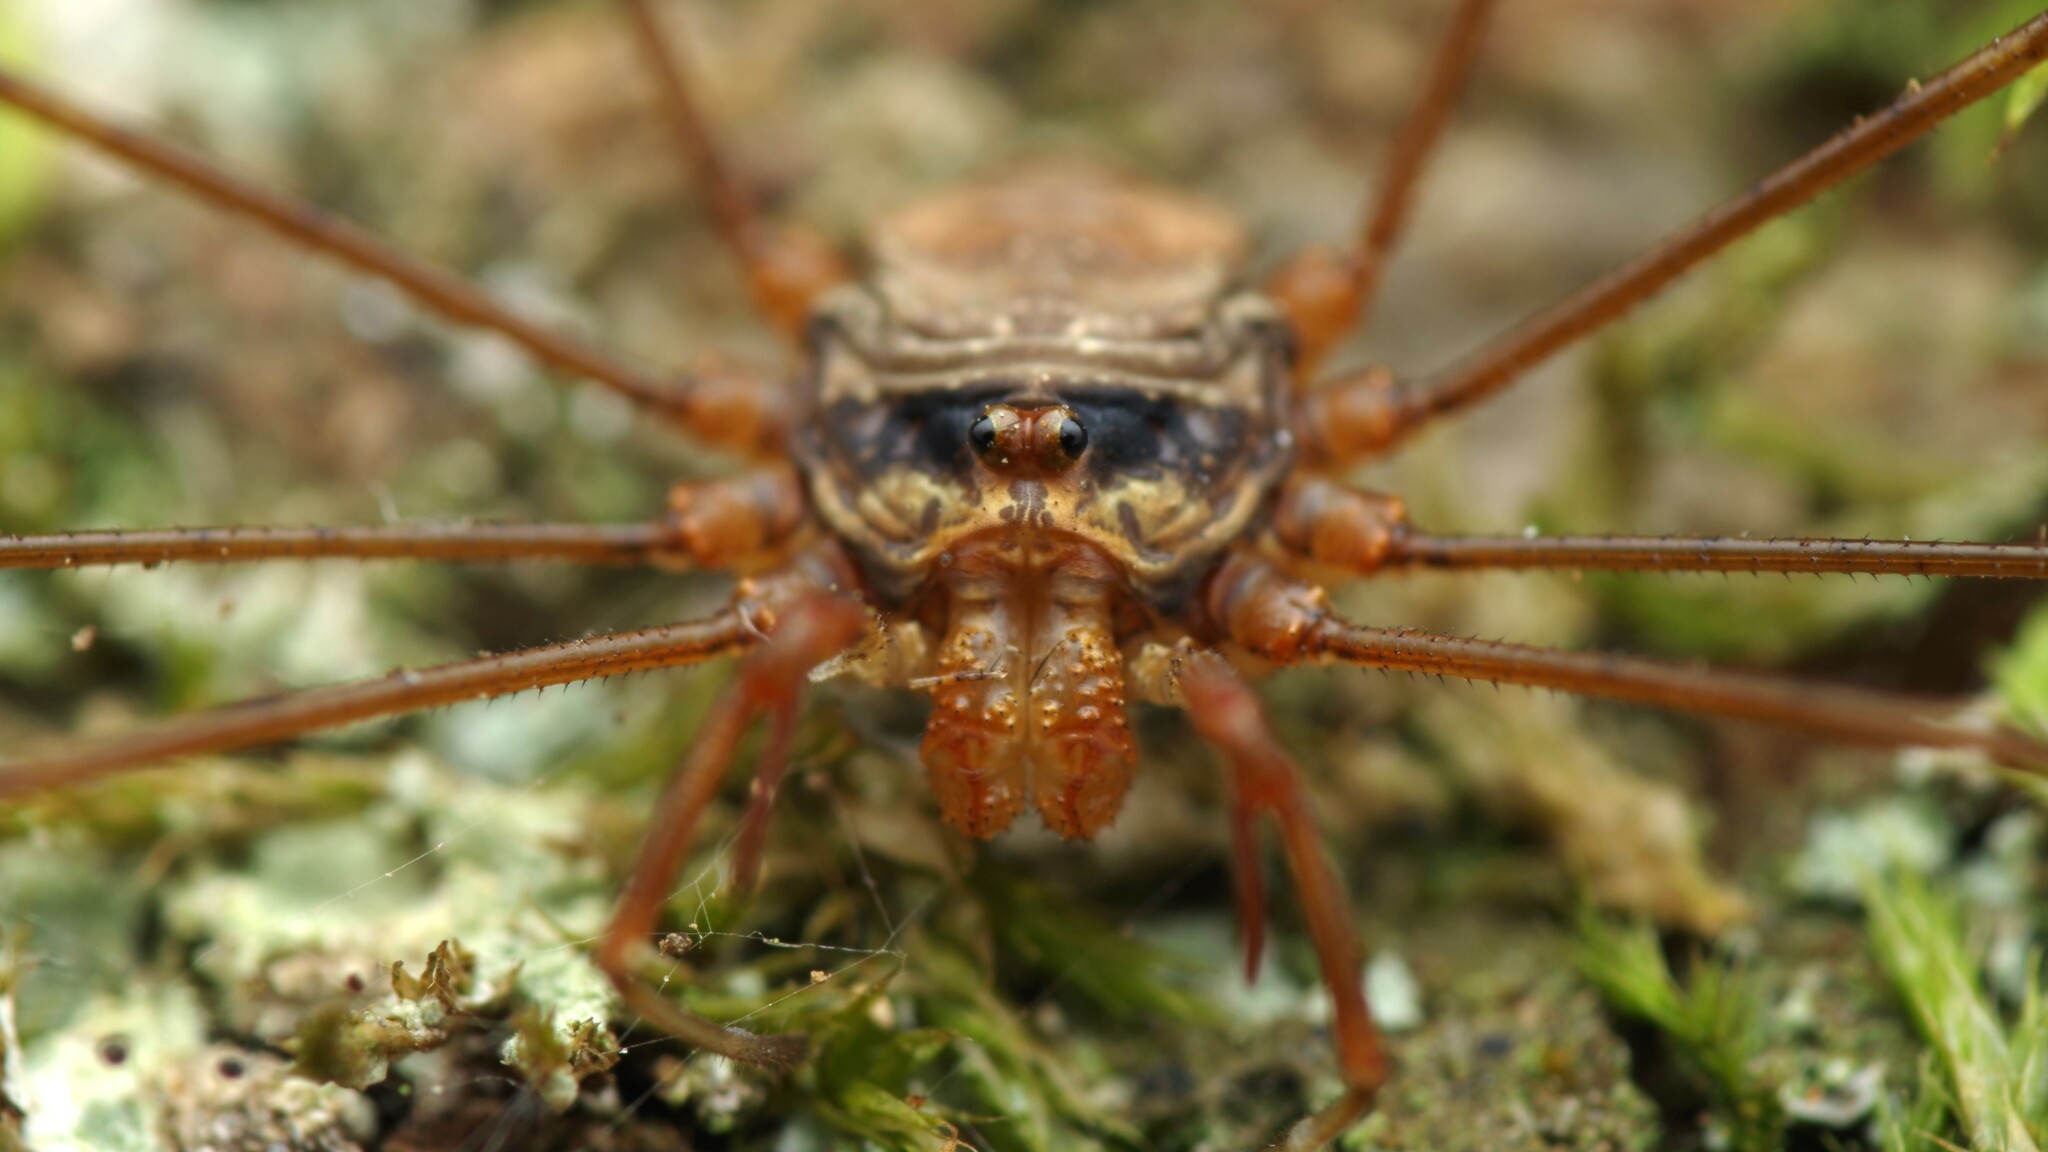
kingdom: Animalia
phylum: Arthropoda
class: Arachnida
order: Opiliones
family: Phalangiidae
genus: Dicranopalpus
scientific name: Dicranopalpus ramosus
